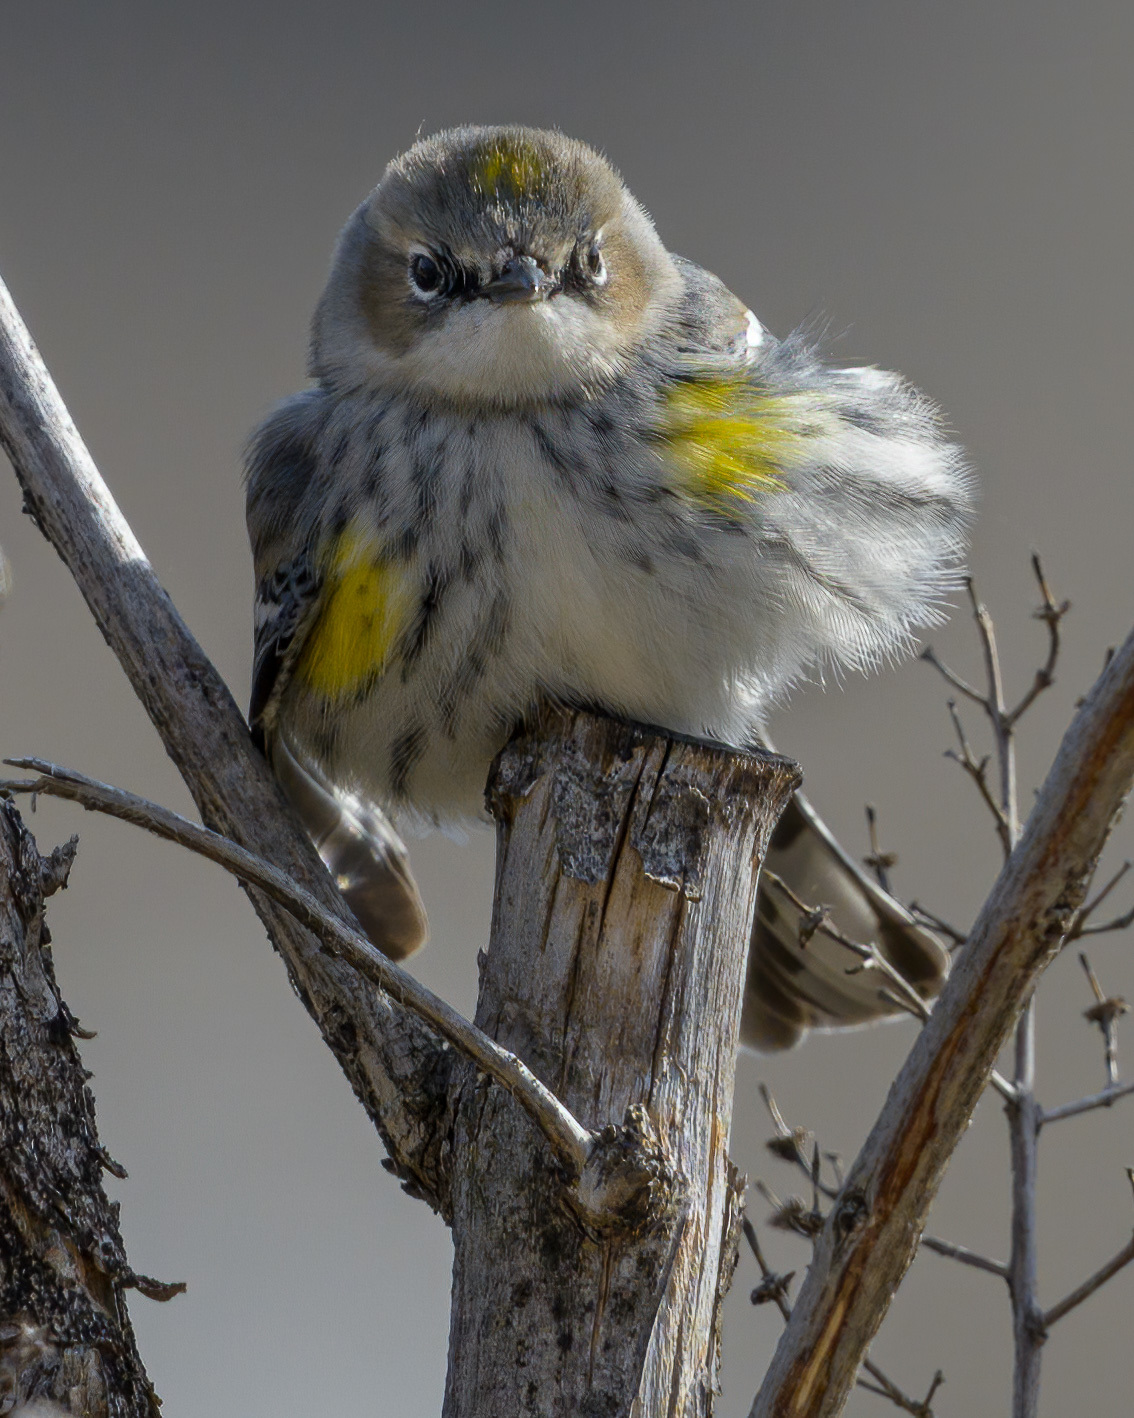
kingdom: Animalia
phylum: Chordata
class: Aves
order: Passeriformes
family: Parulidae
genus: Setophaga
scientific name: Setophaga coronata
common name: Myrtle warbler
